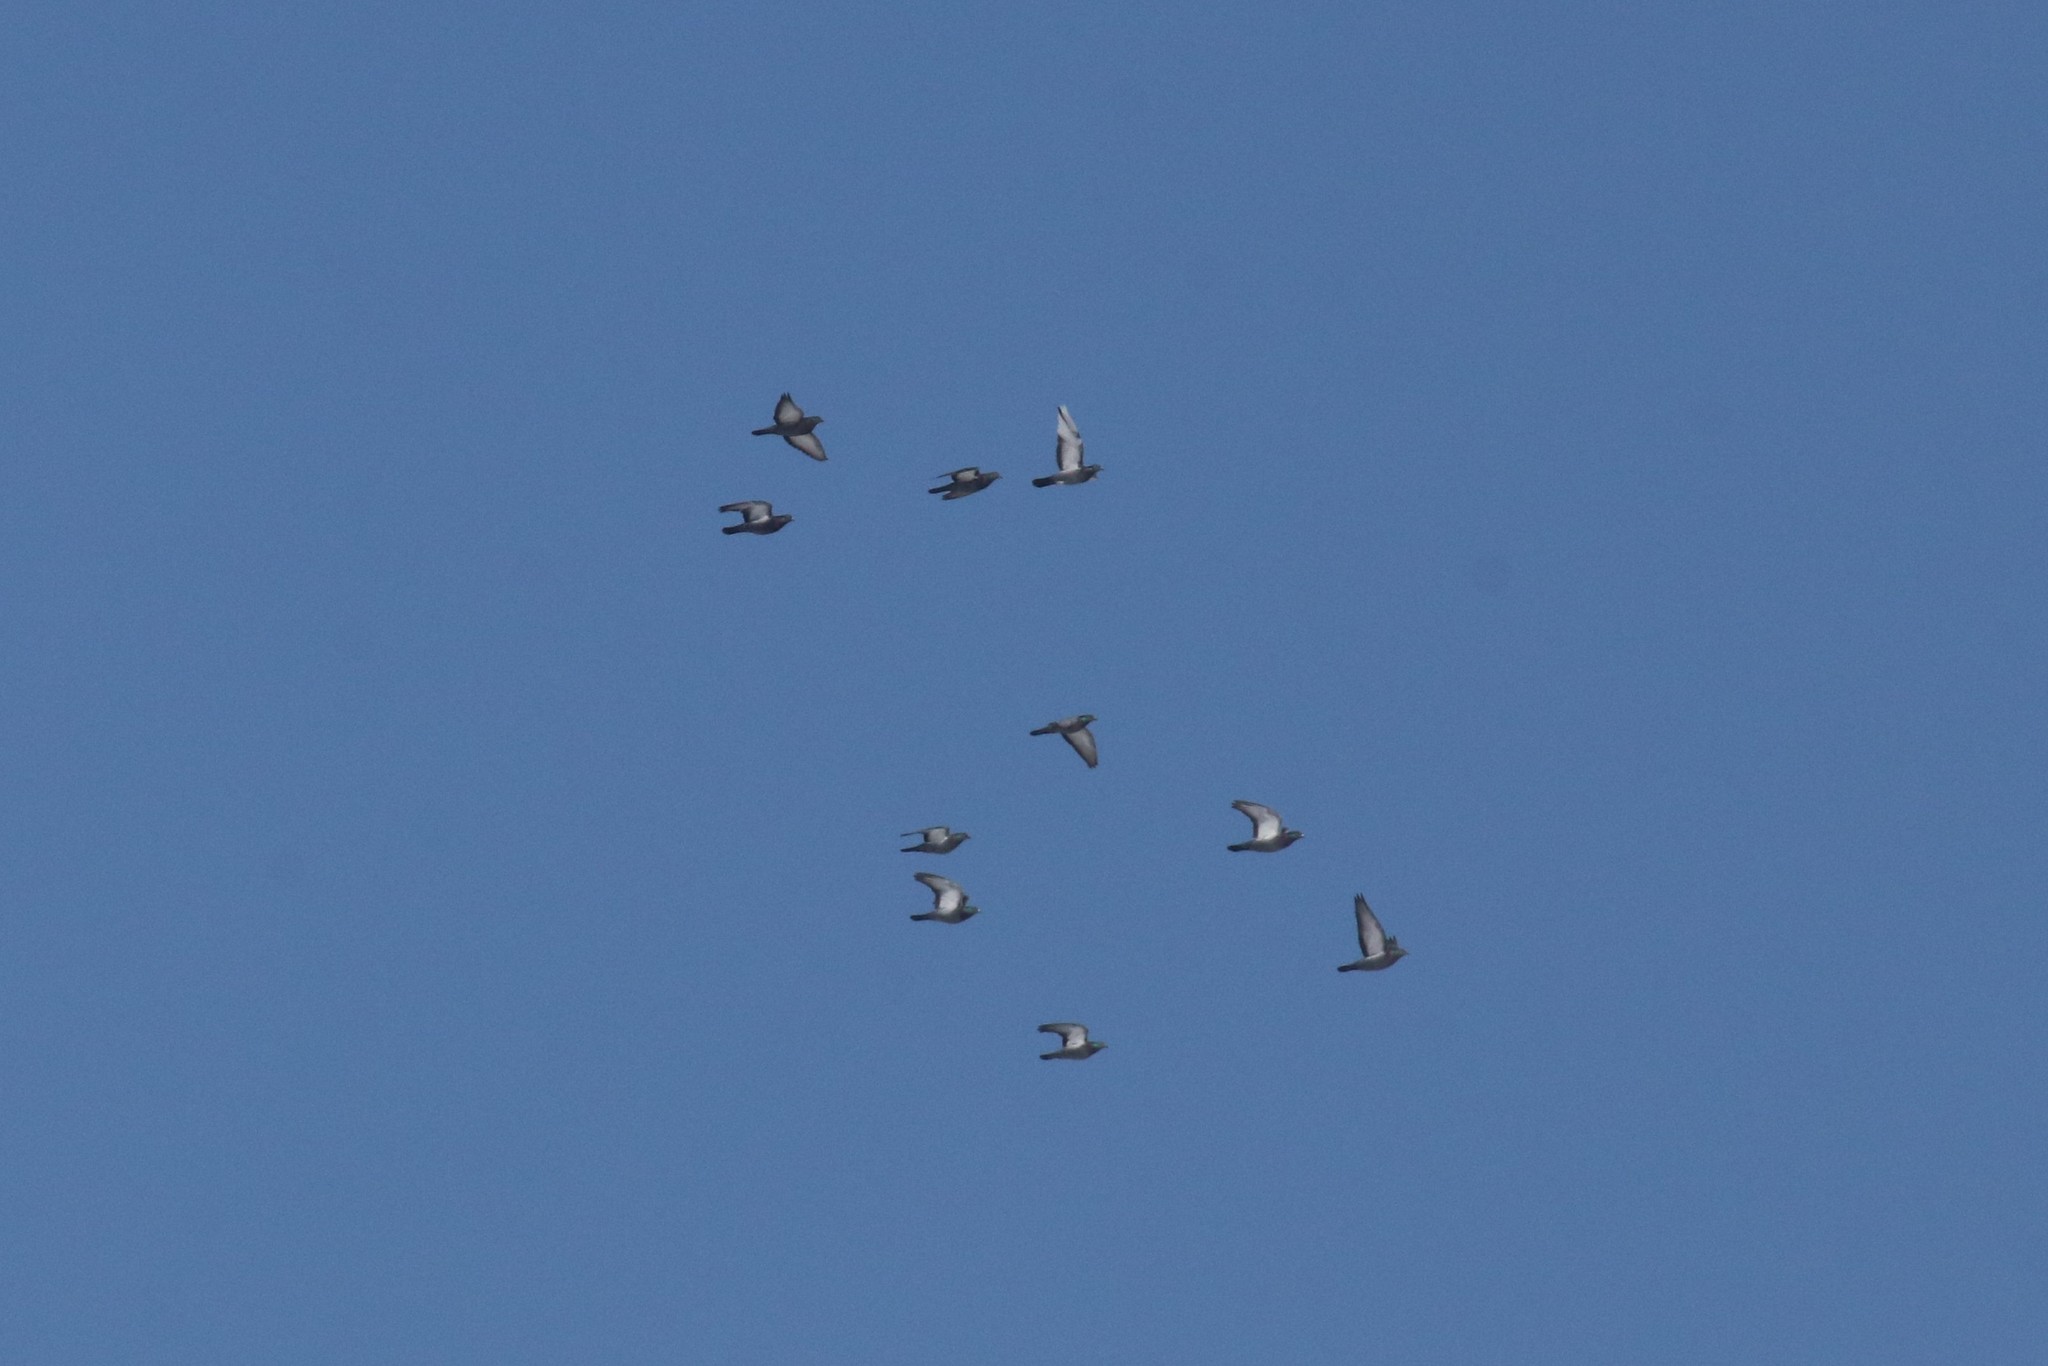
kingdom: Animalia
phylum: Chordata
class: Aves
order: Columbiformes
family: Columbidae
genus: Columba
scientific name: Columba livia
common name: Rock pigeon
